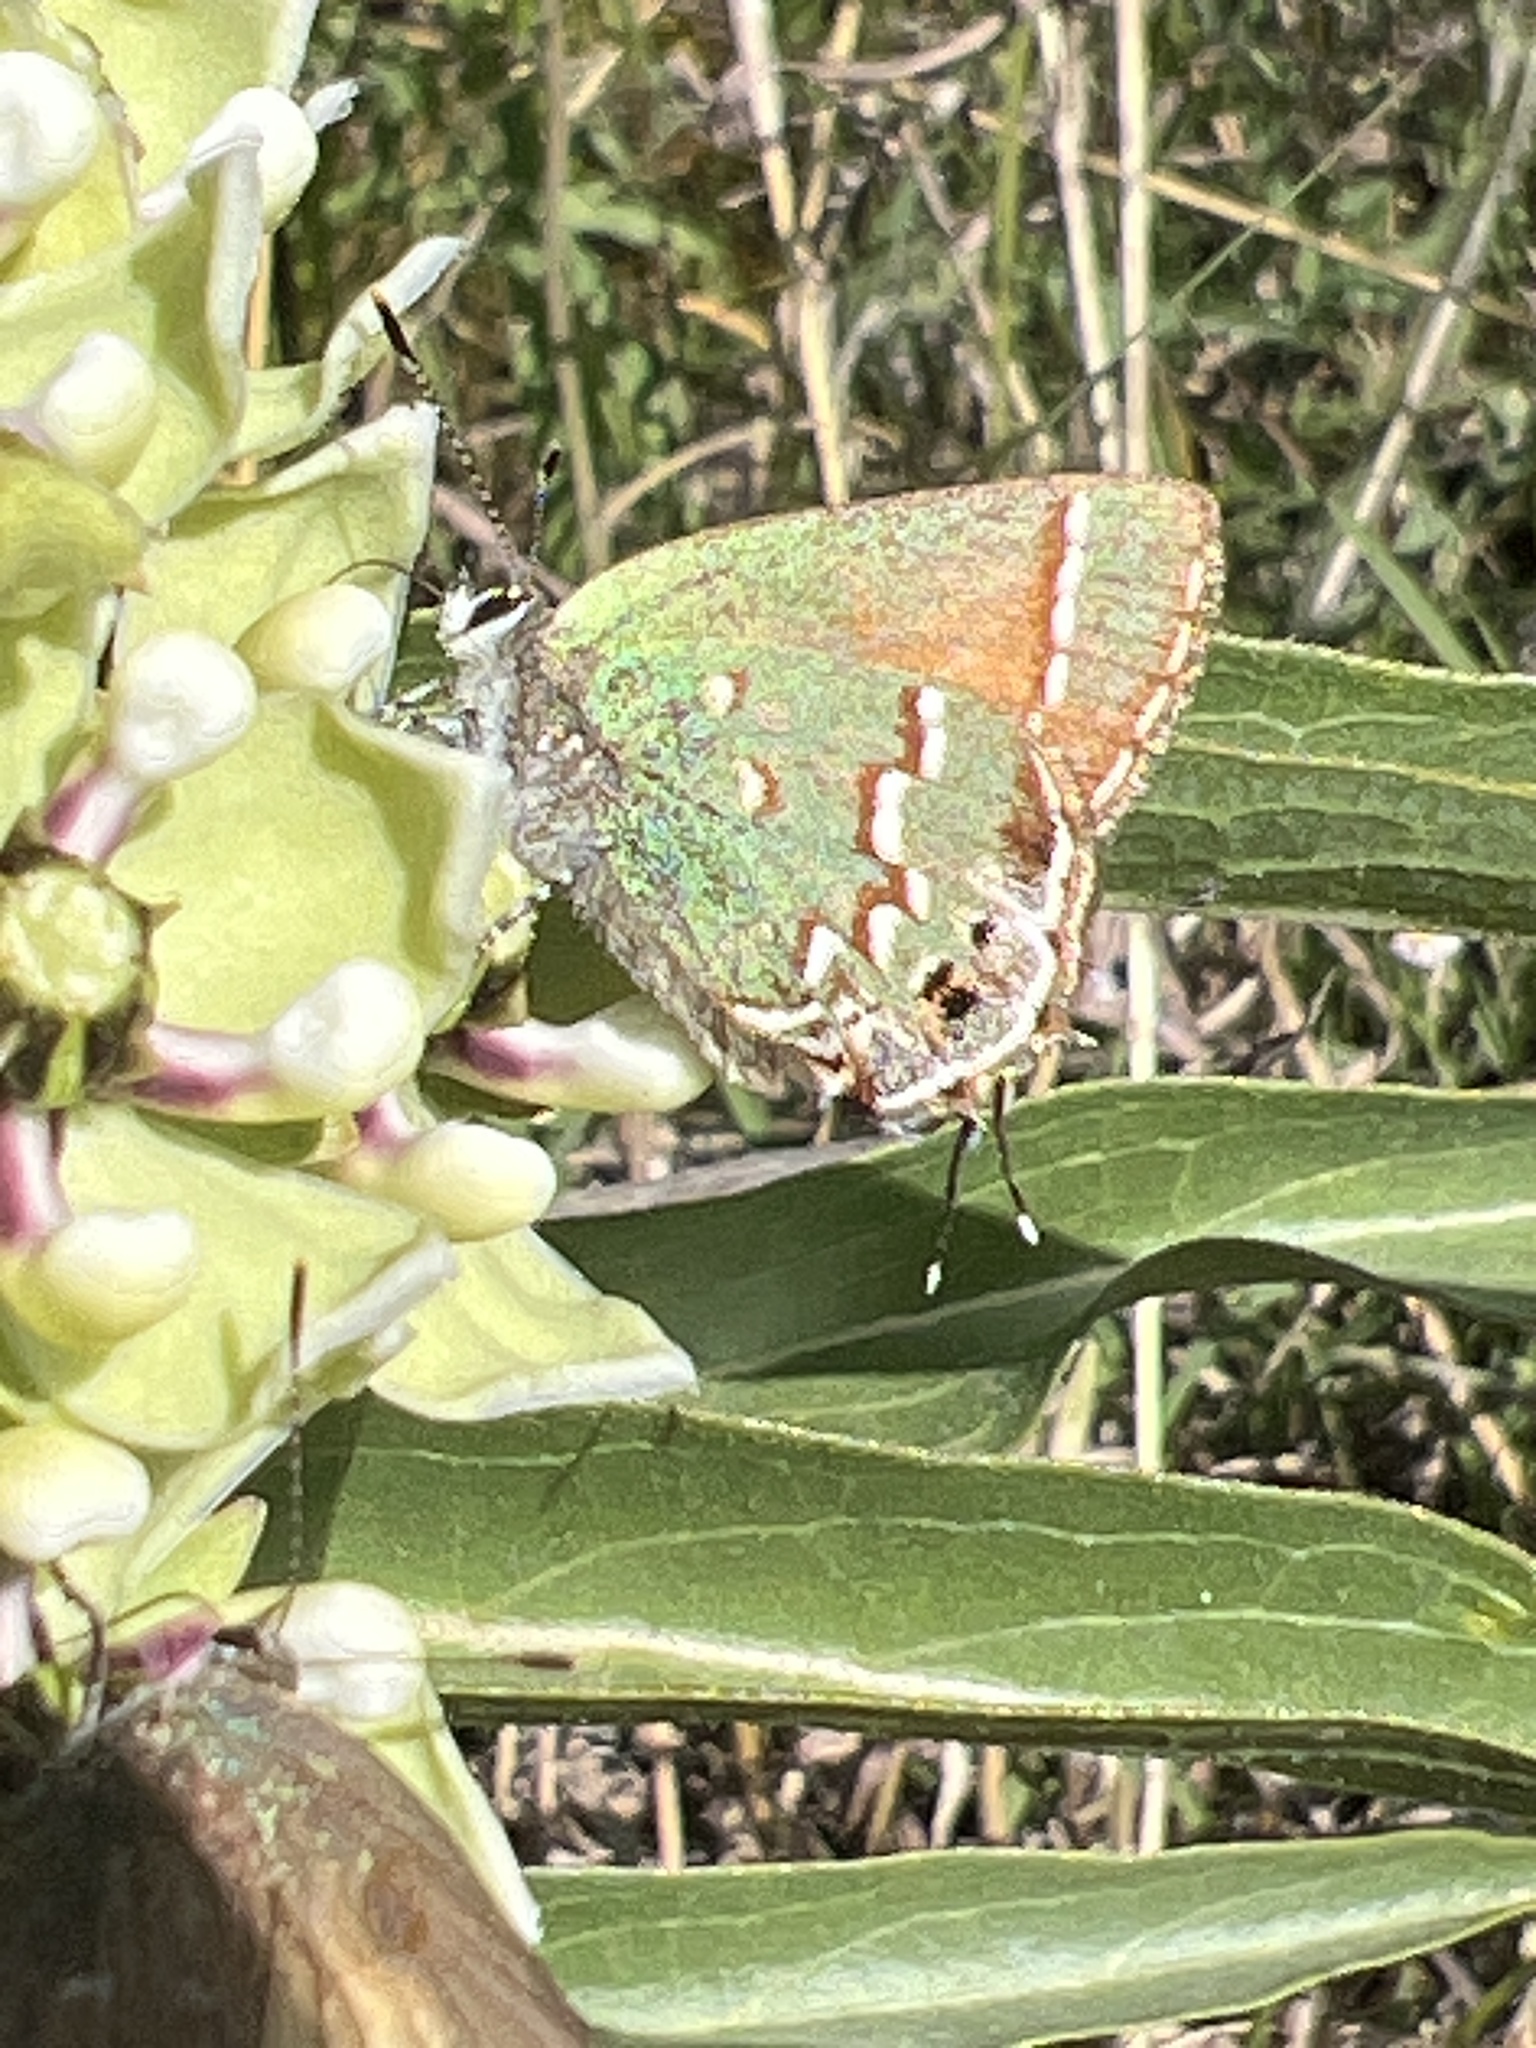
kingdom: Animalia
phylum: Arthropoda
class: Insecta
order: Lepidoptera
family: Lycaenidae
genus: Mitoura
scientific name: Mitoura gryneus
